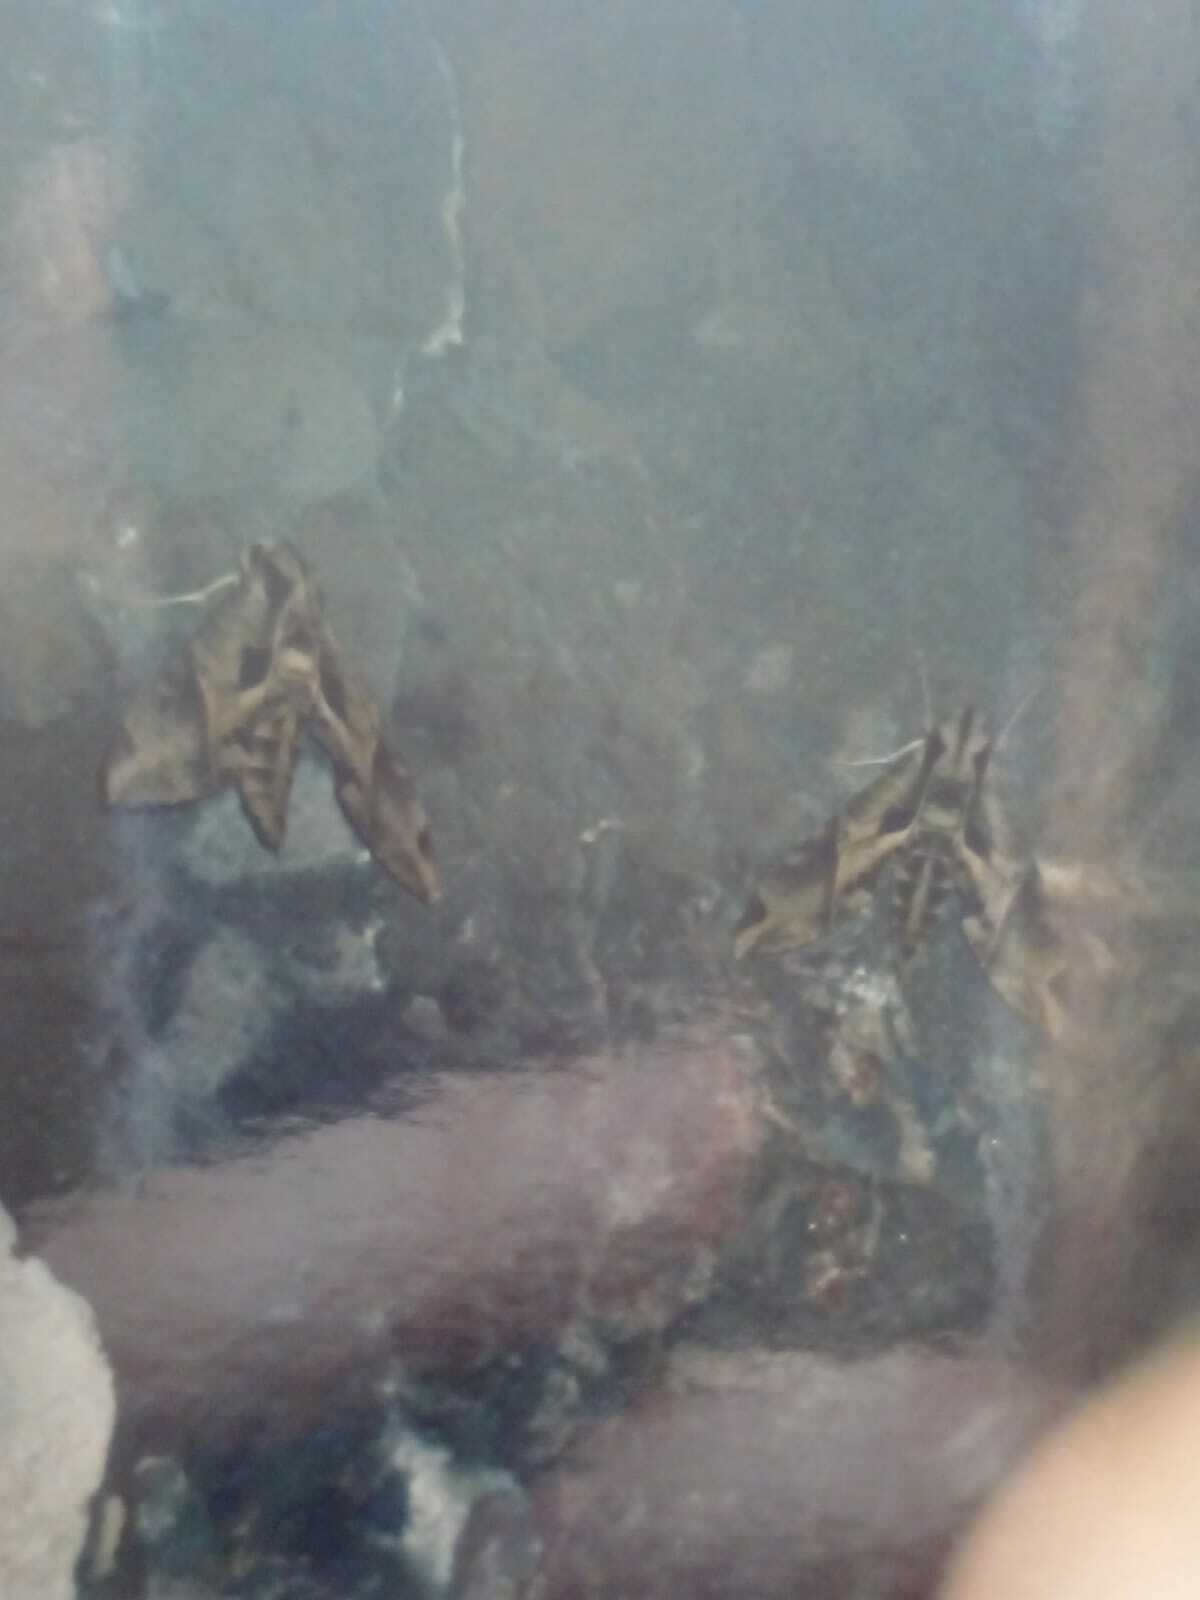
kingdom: Animalia
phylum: Arthropoda
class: Insecta
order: Lepidoptera
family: Sphingidae
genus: Eumorpha
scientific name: Eumorpha analis
